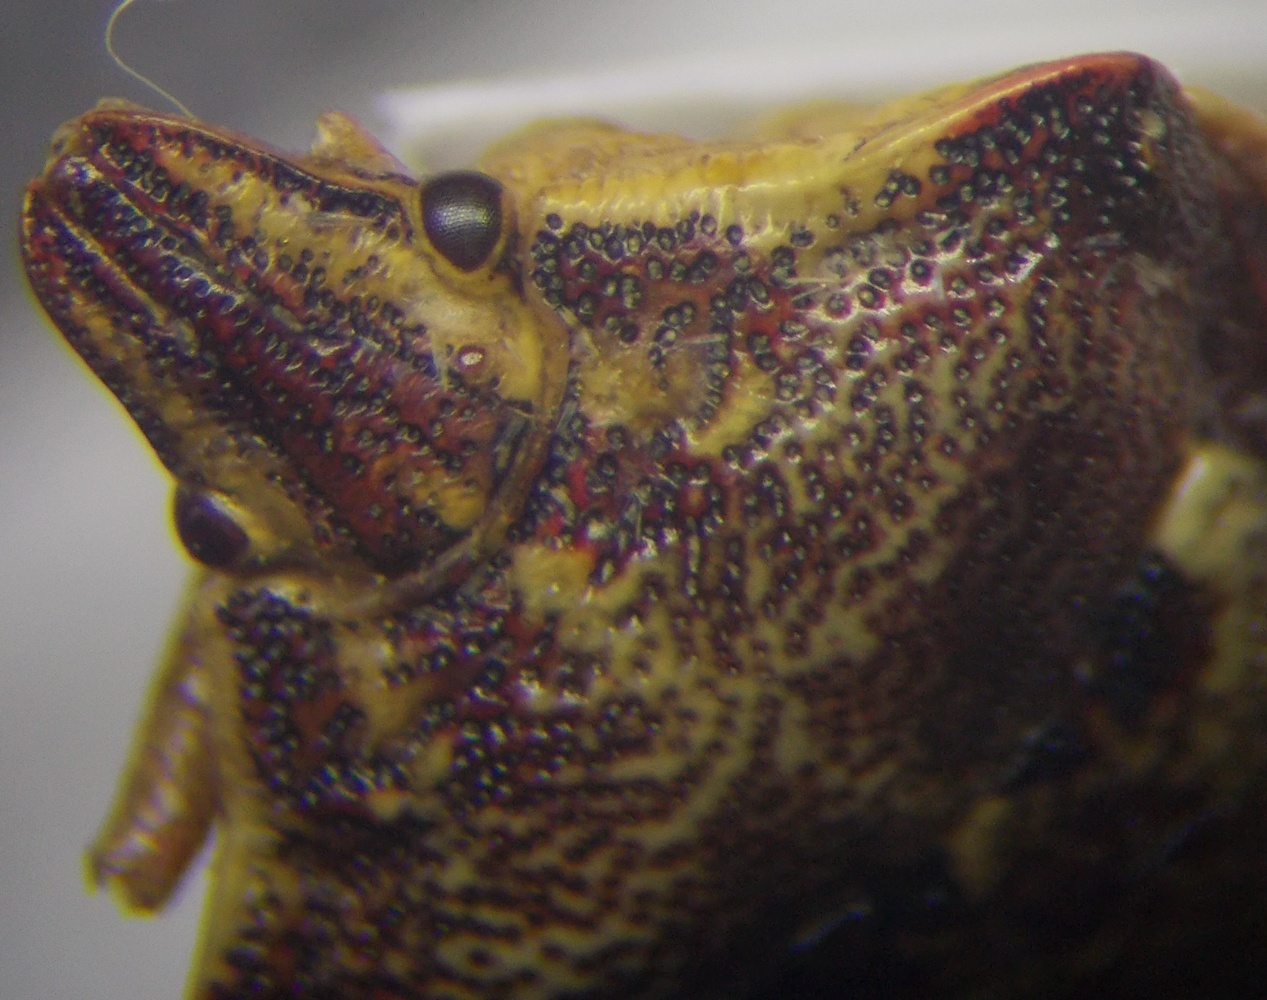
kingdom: Animalia
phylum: Arthropoda
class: Insecta
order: Hemiptera
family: Miridae
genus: Orthops
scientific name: Orthops kalmii
